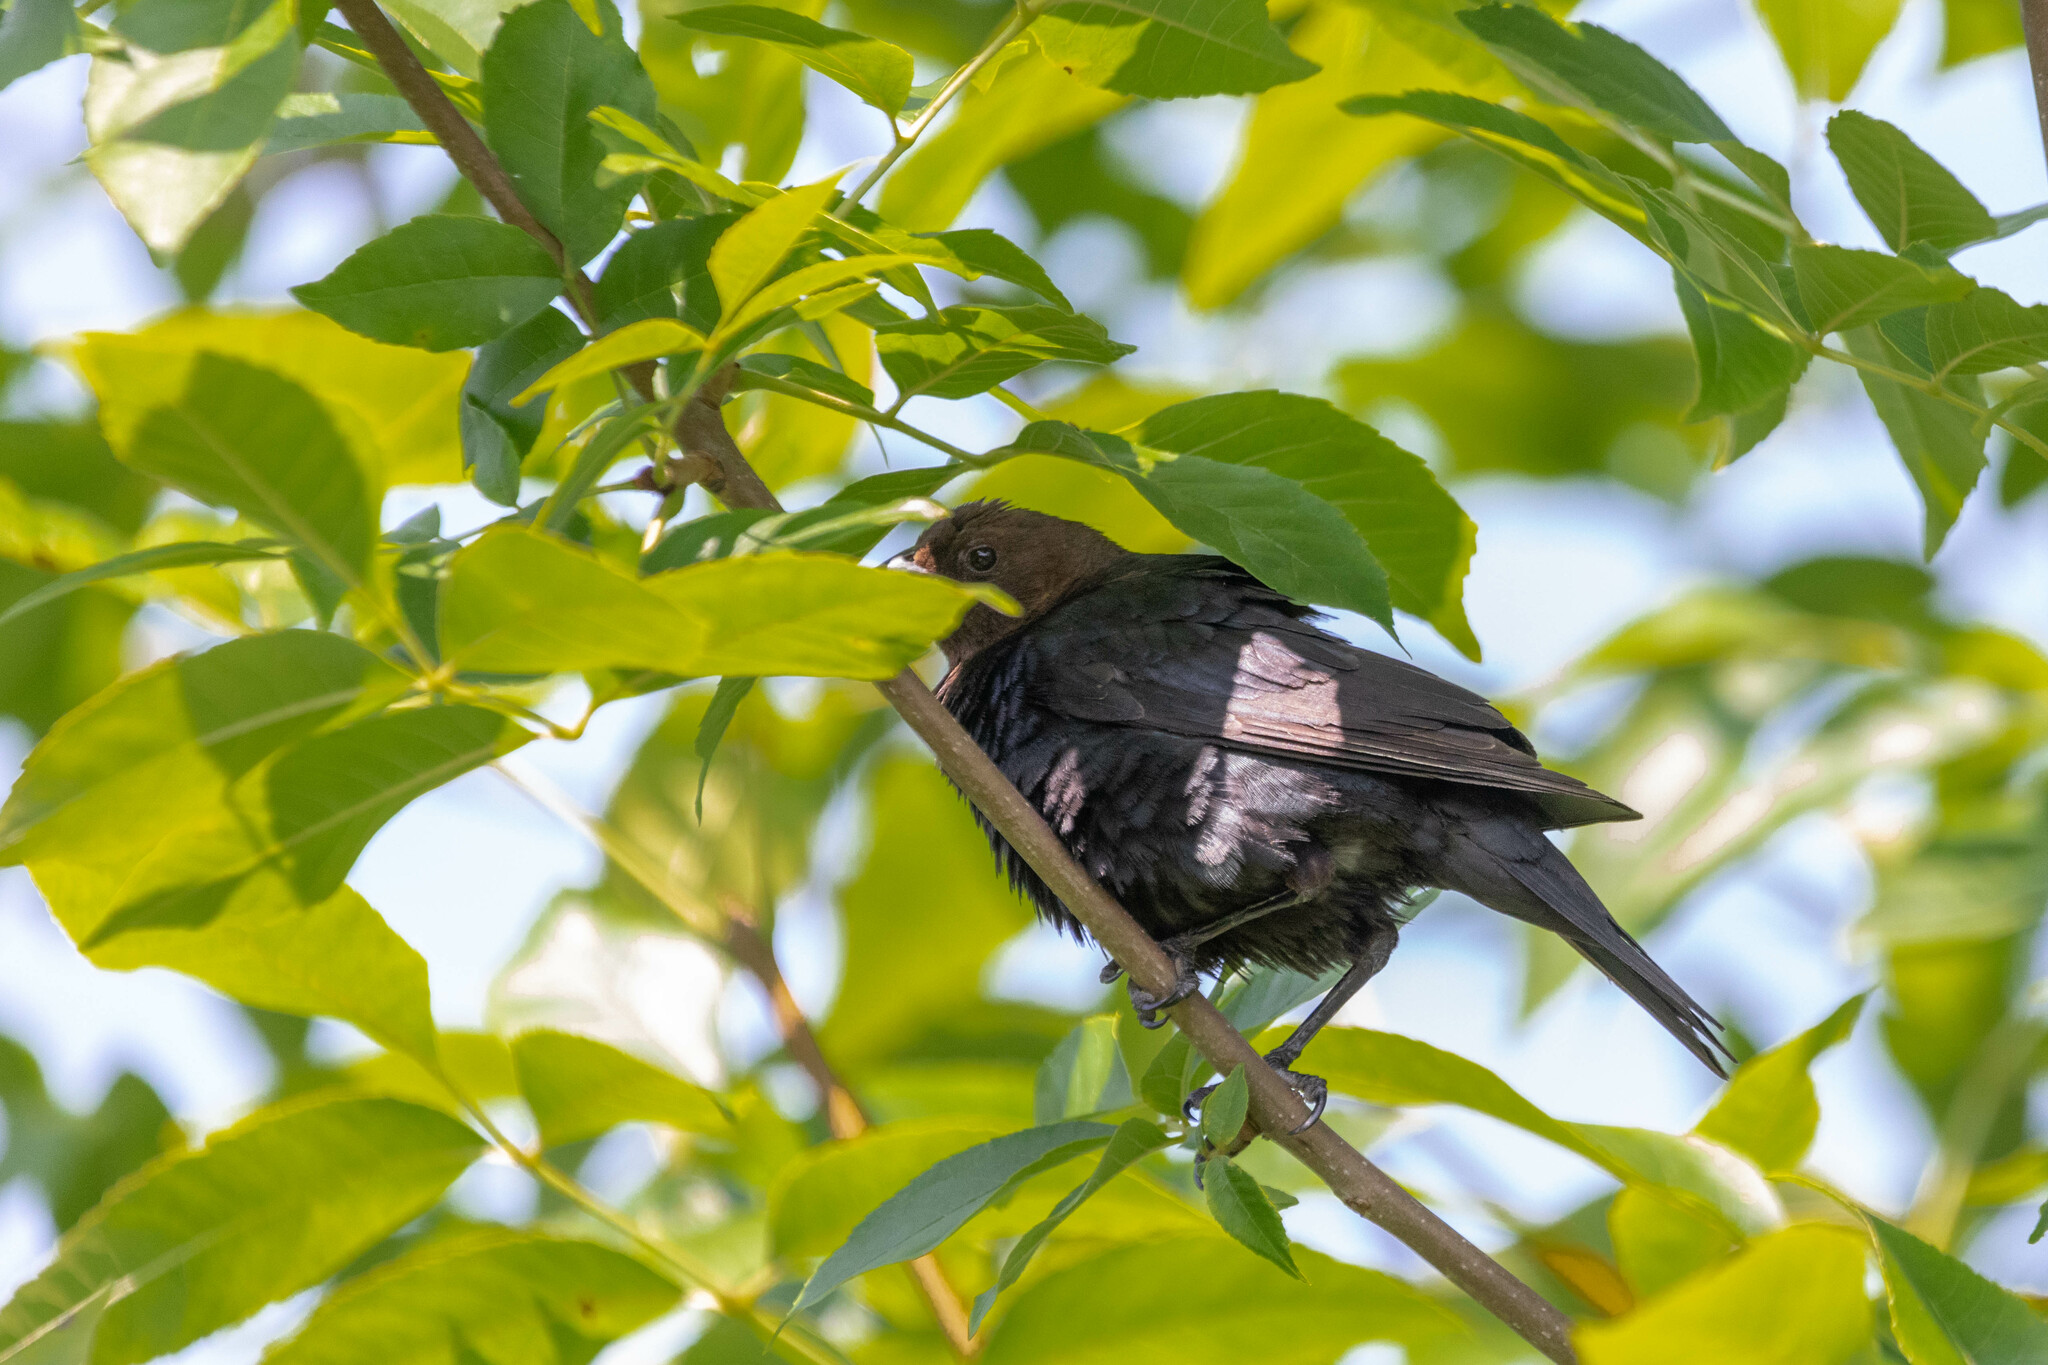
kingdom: Animalia
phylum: Chordata
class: Aves
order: Passeriformes
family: Icteridae
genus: Molothrus
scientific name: Molothrus ater
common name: Brown-headed cowbird
